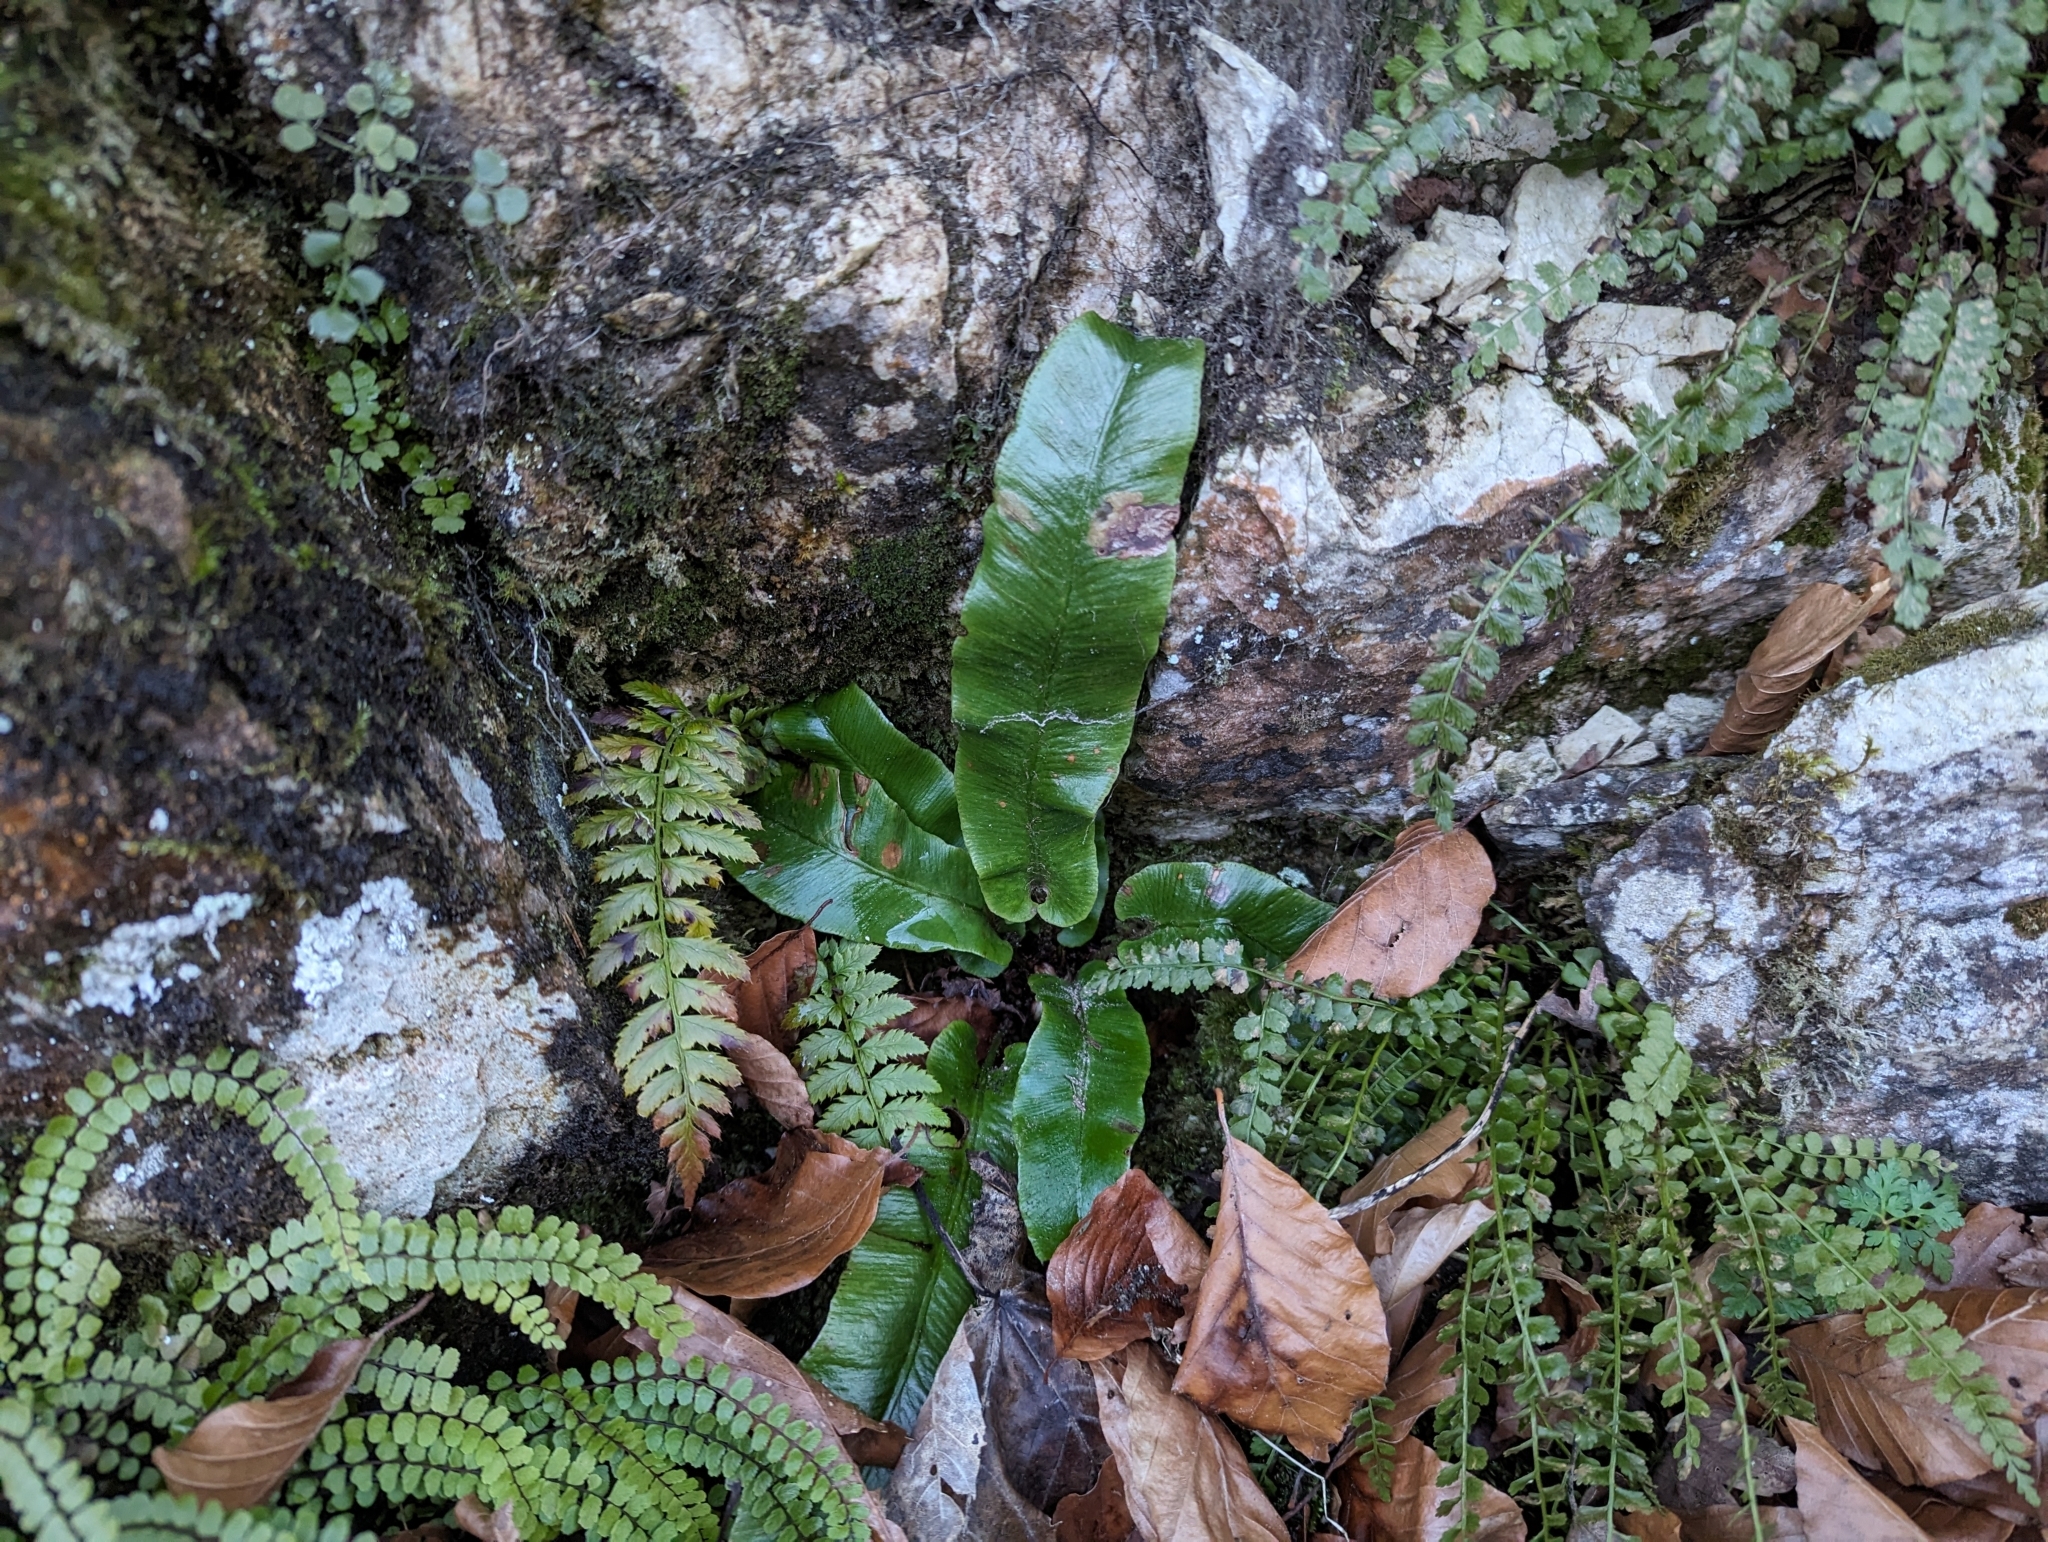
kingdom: Plantae
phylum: Tracheophyta
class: Polypodiopsida
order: Polypodiales
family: Aspleniaceae
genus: Asplenium
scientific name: Asplenium scolopendrium
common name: Hart's-tongue fern
